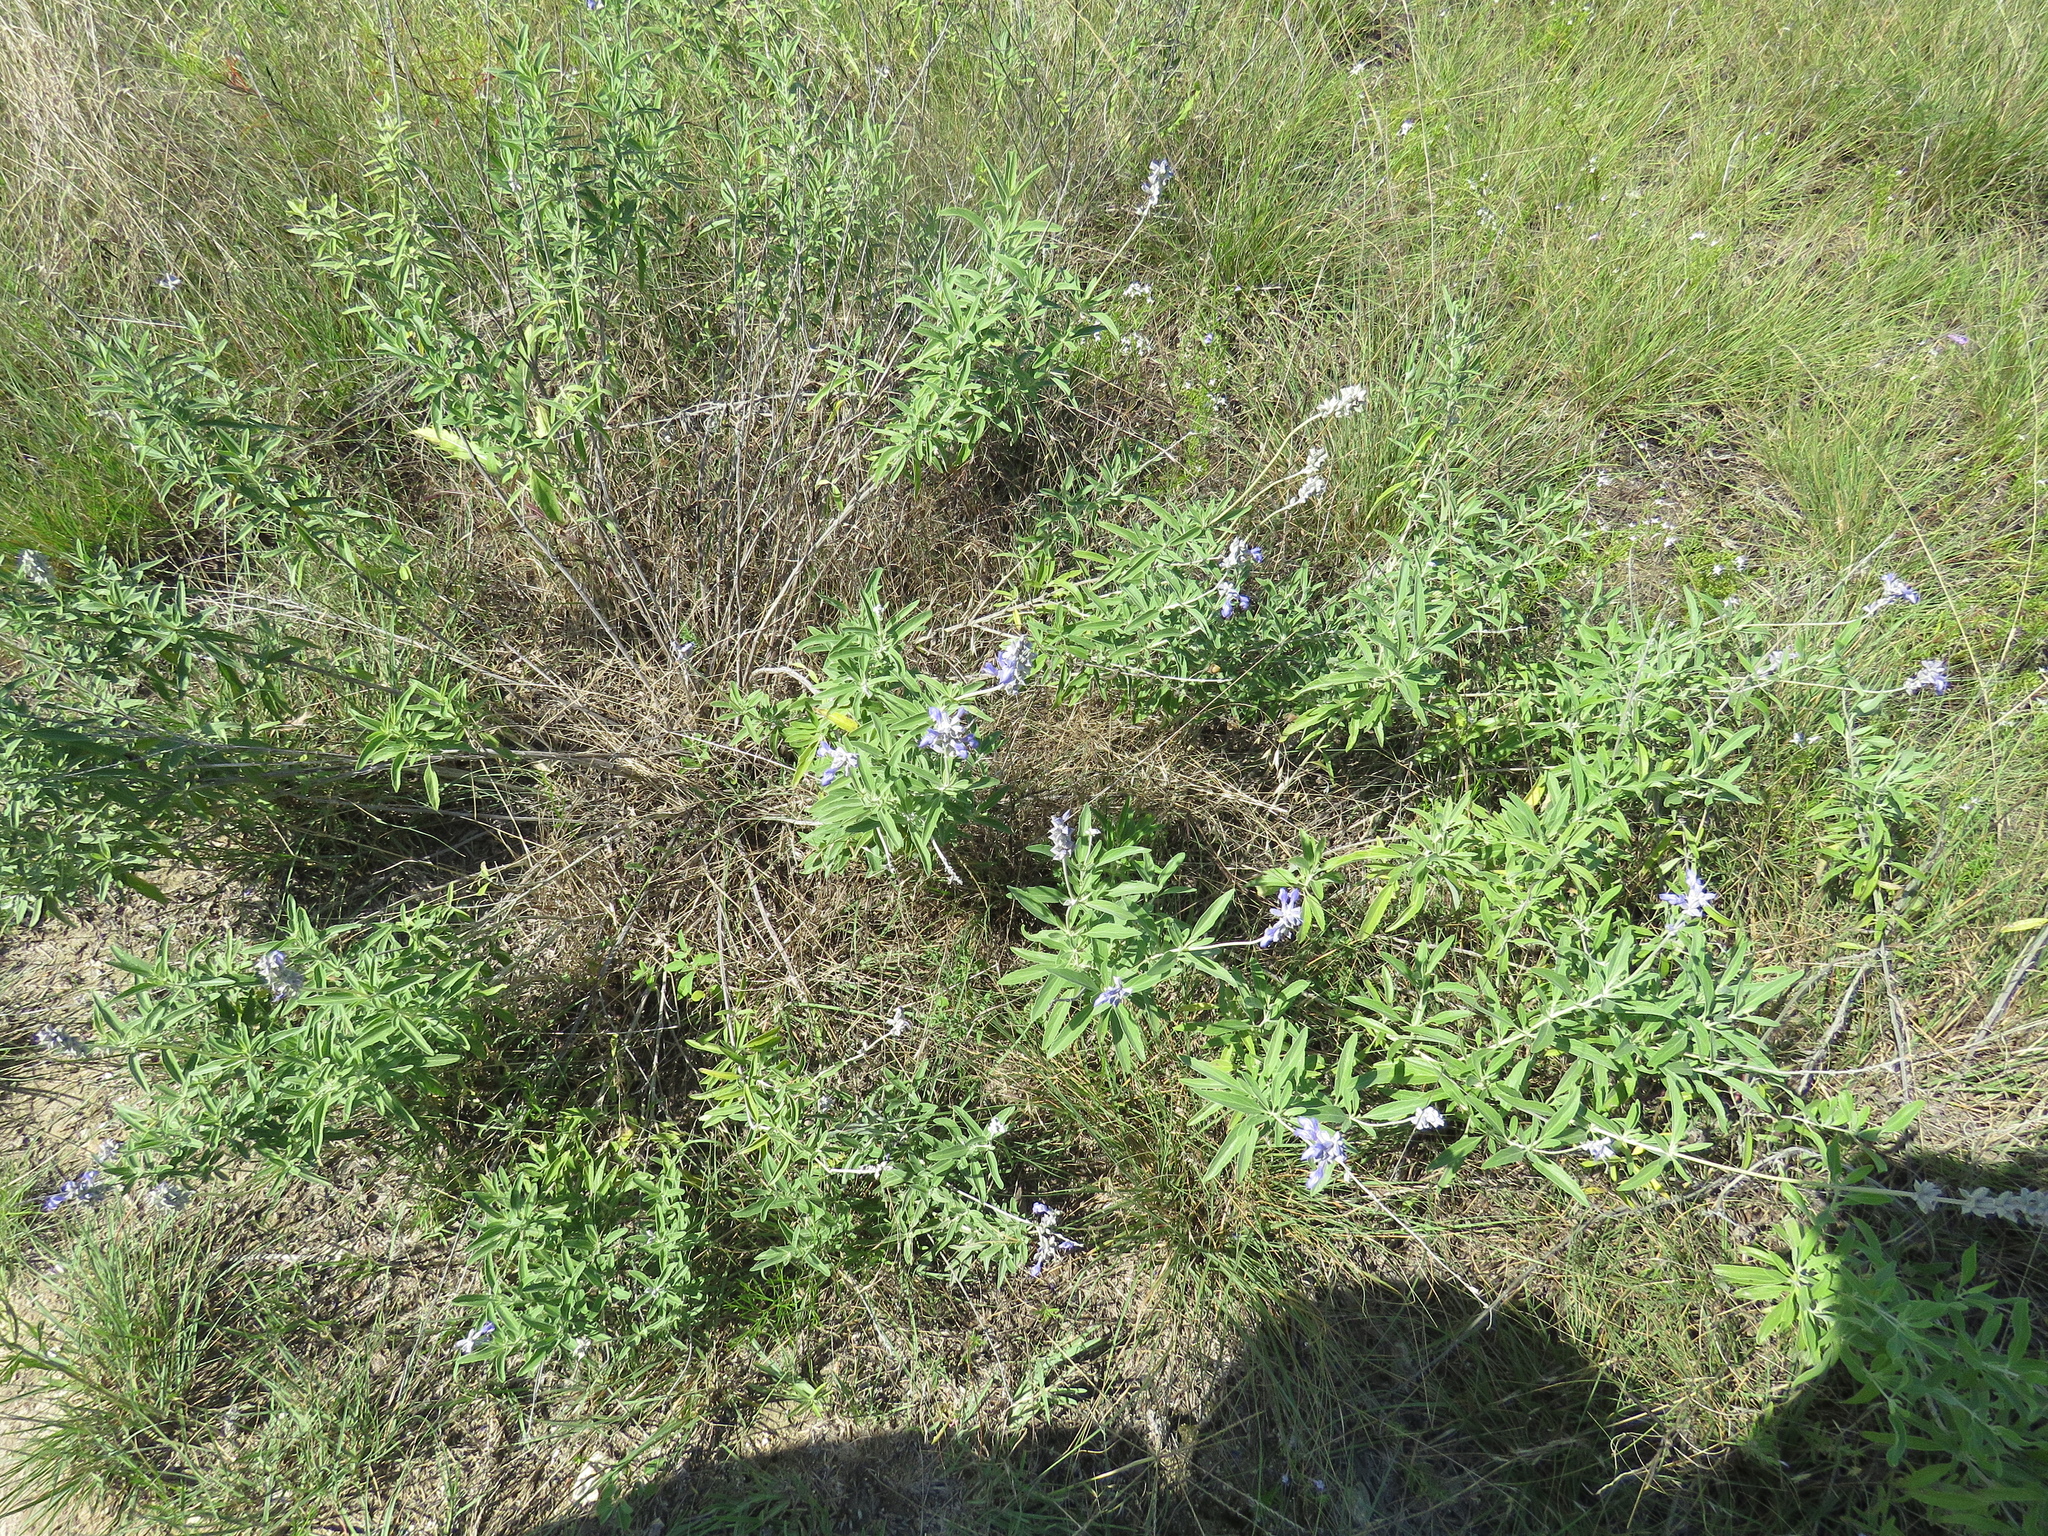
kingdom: Plantae
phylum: Tracheophyta
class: Magnoliopsida
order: Lamiales
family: Lamiaceae
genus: Salvia
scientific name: Salvia farinacea
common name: Mealy sage
